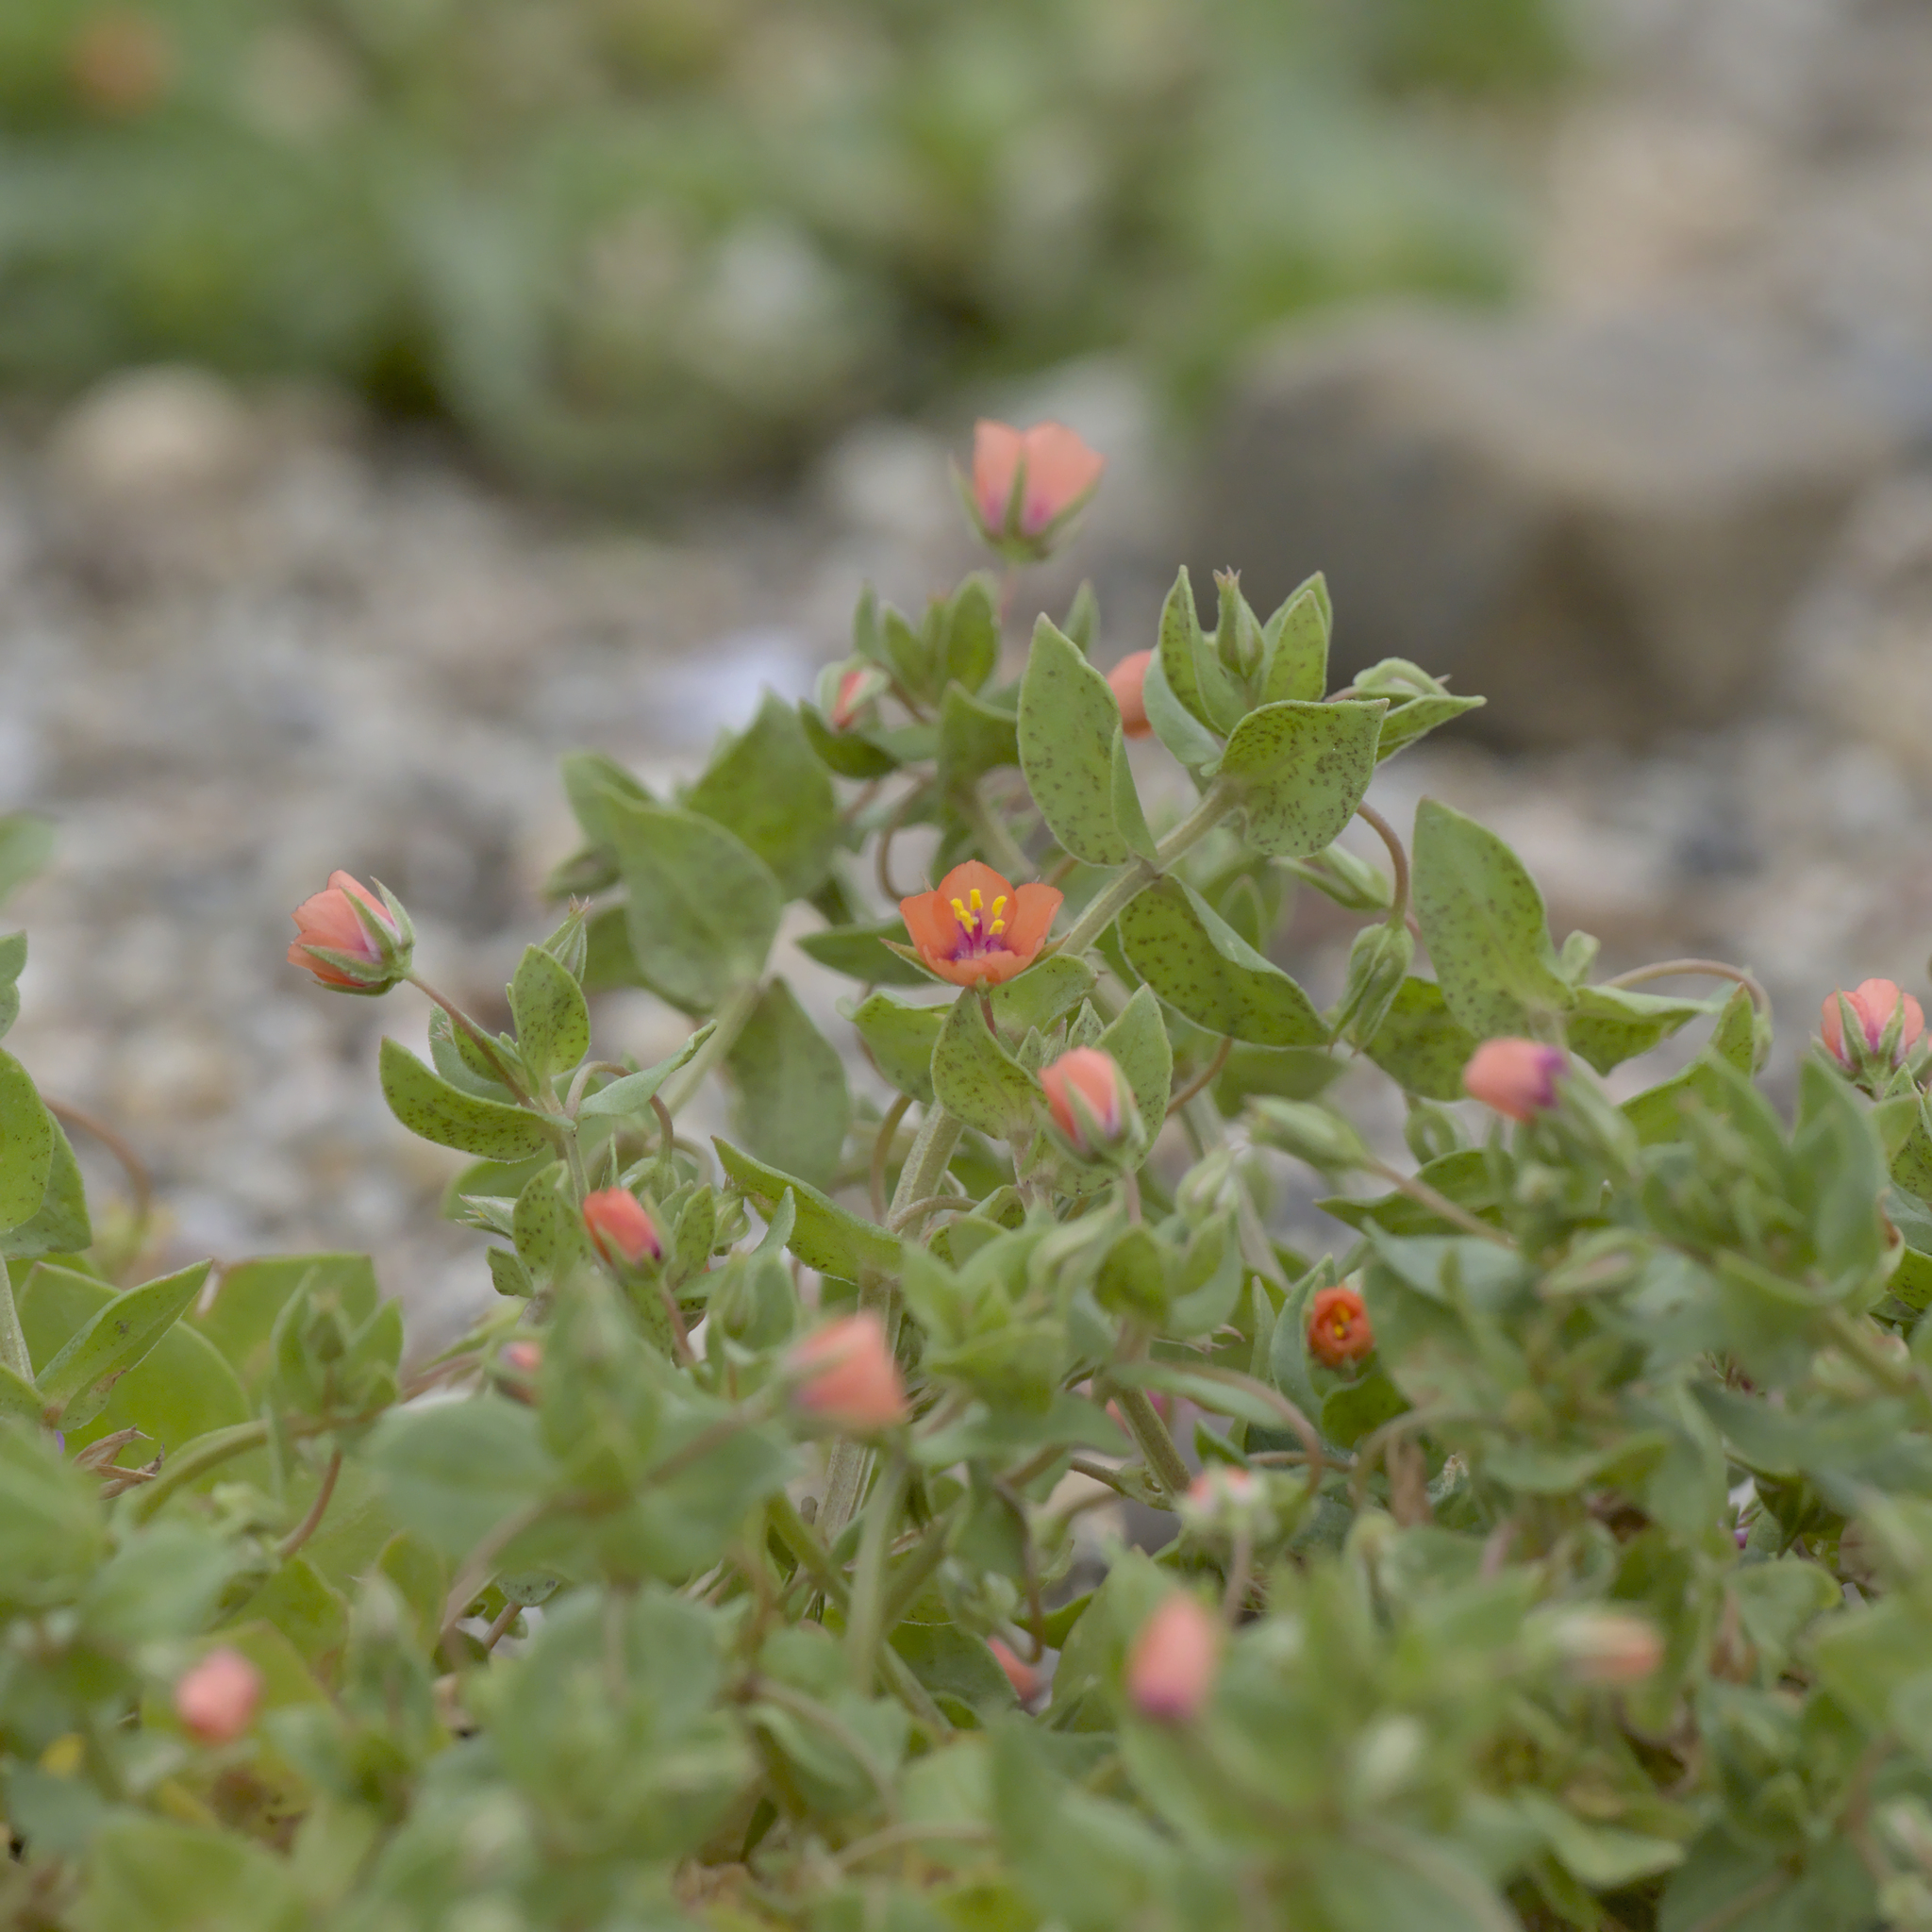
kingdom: Plantae
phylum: Tracheophyta
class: Magnoliopsida
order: Ericales
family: Primulaceae
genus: Lysimachia
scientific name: Lysimachia arvensis
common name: Scarlet pimpernel
